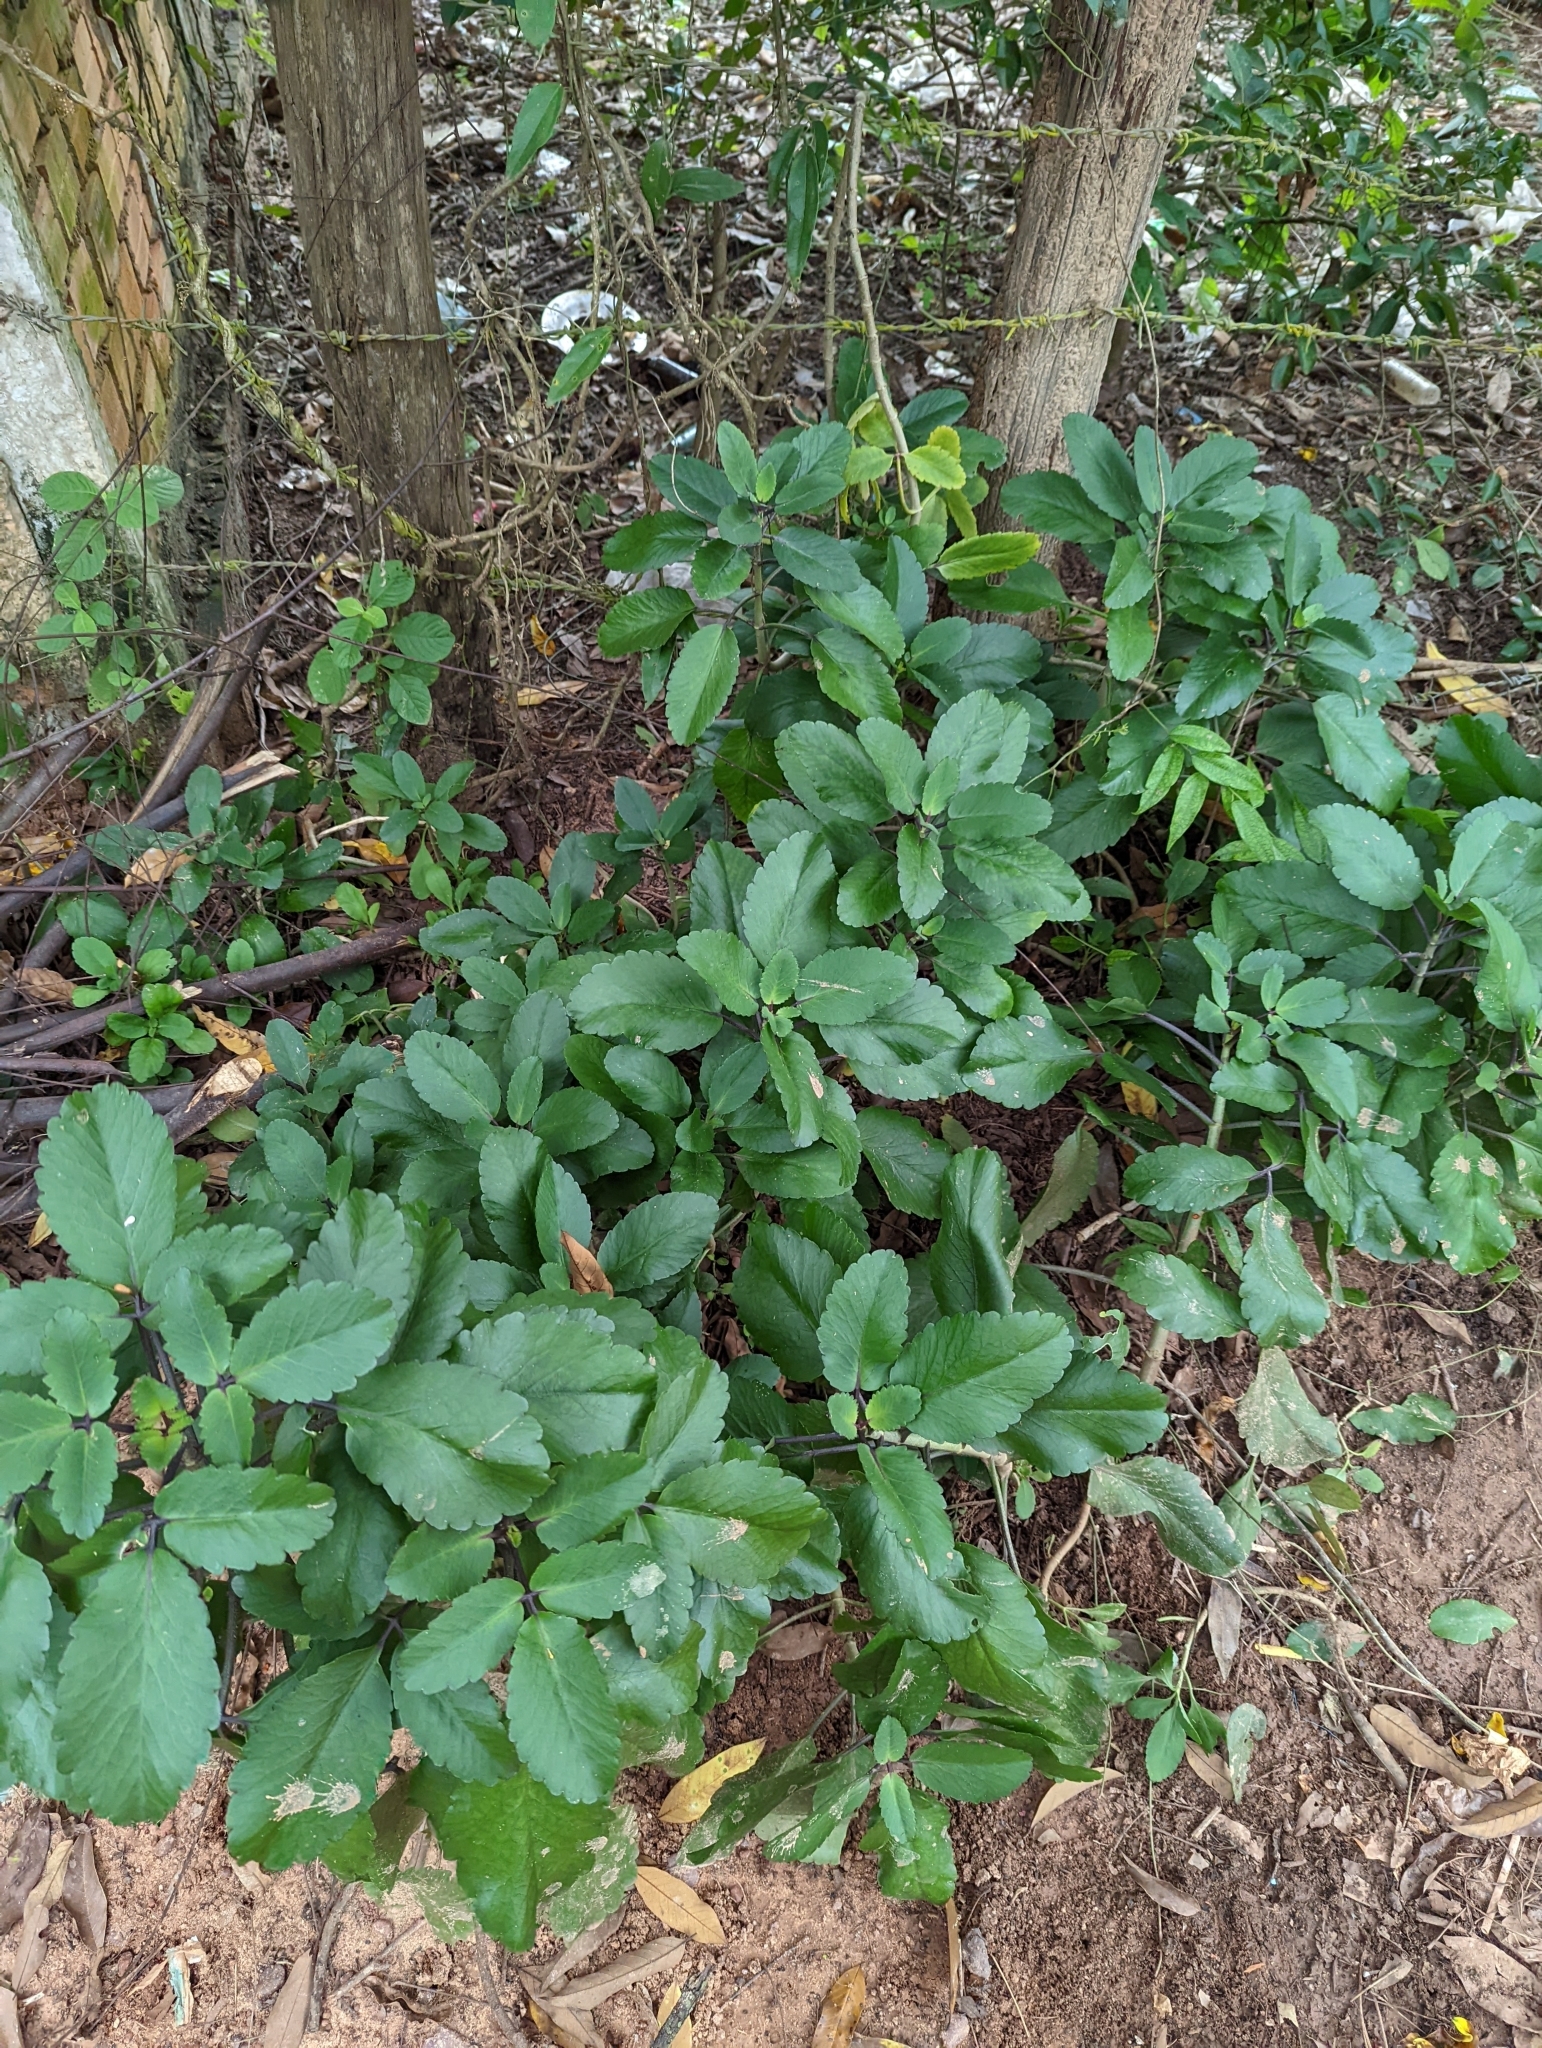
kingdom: Plantae
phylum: Tracheophyta
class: Magnoliopsida
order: Saxifragales
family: Crassulaceae
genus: Kalanchoe
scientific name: Kalanchoe pinnata
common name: Cathedral bells
